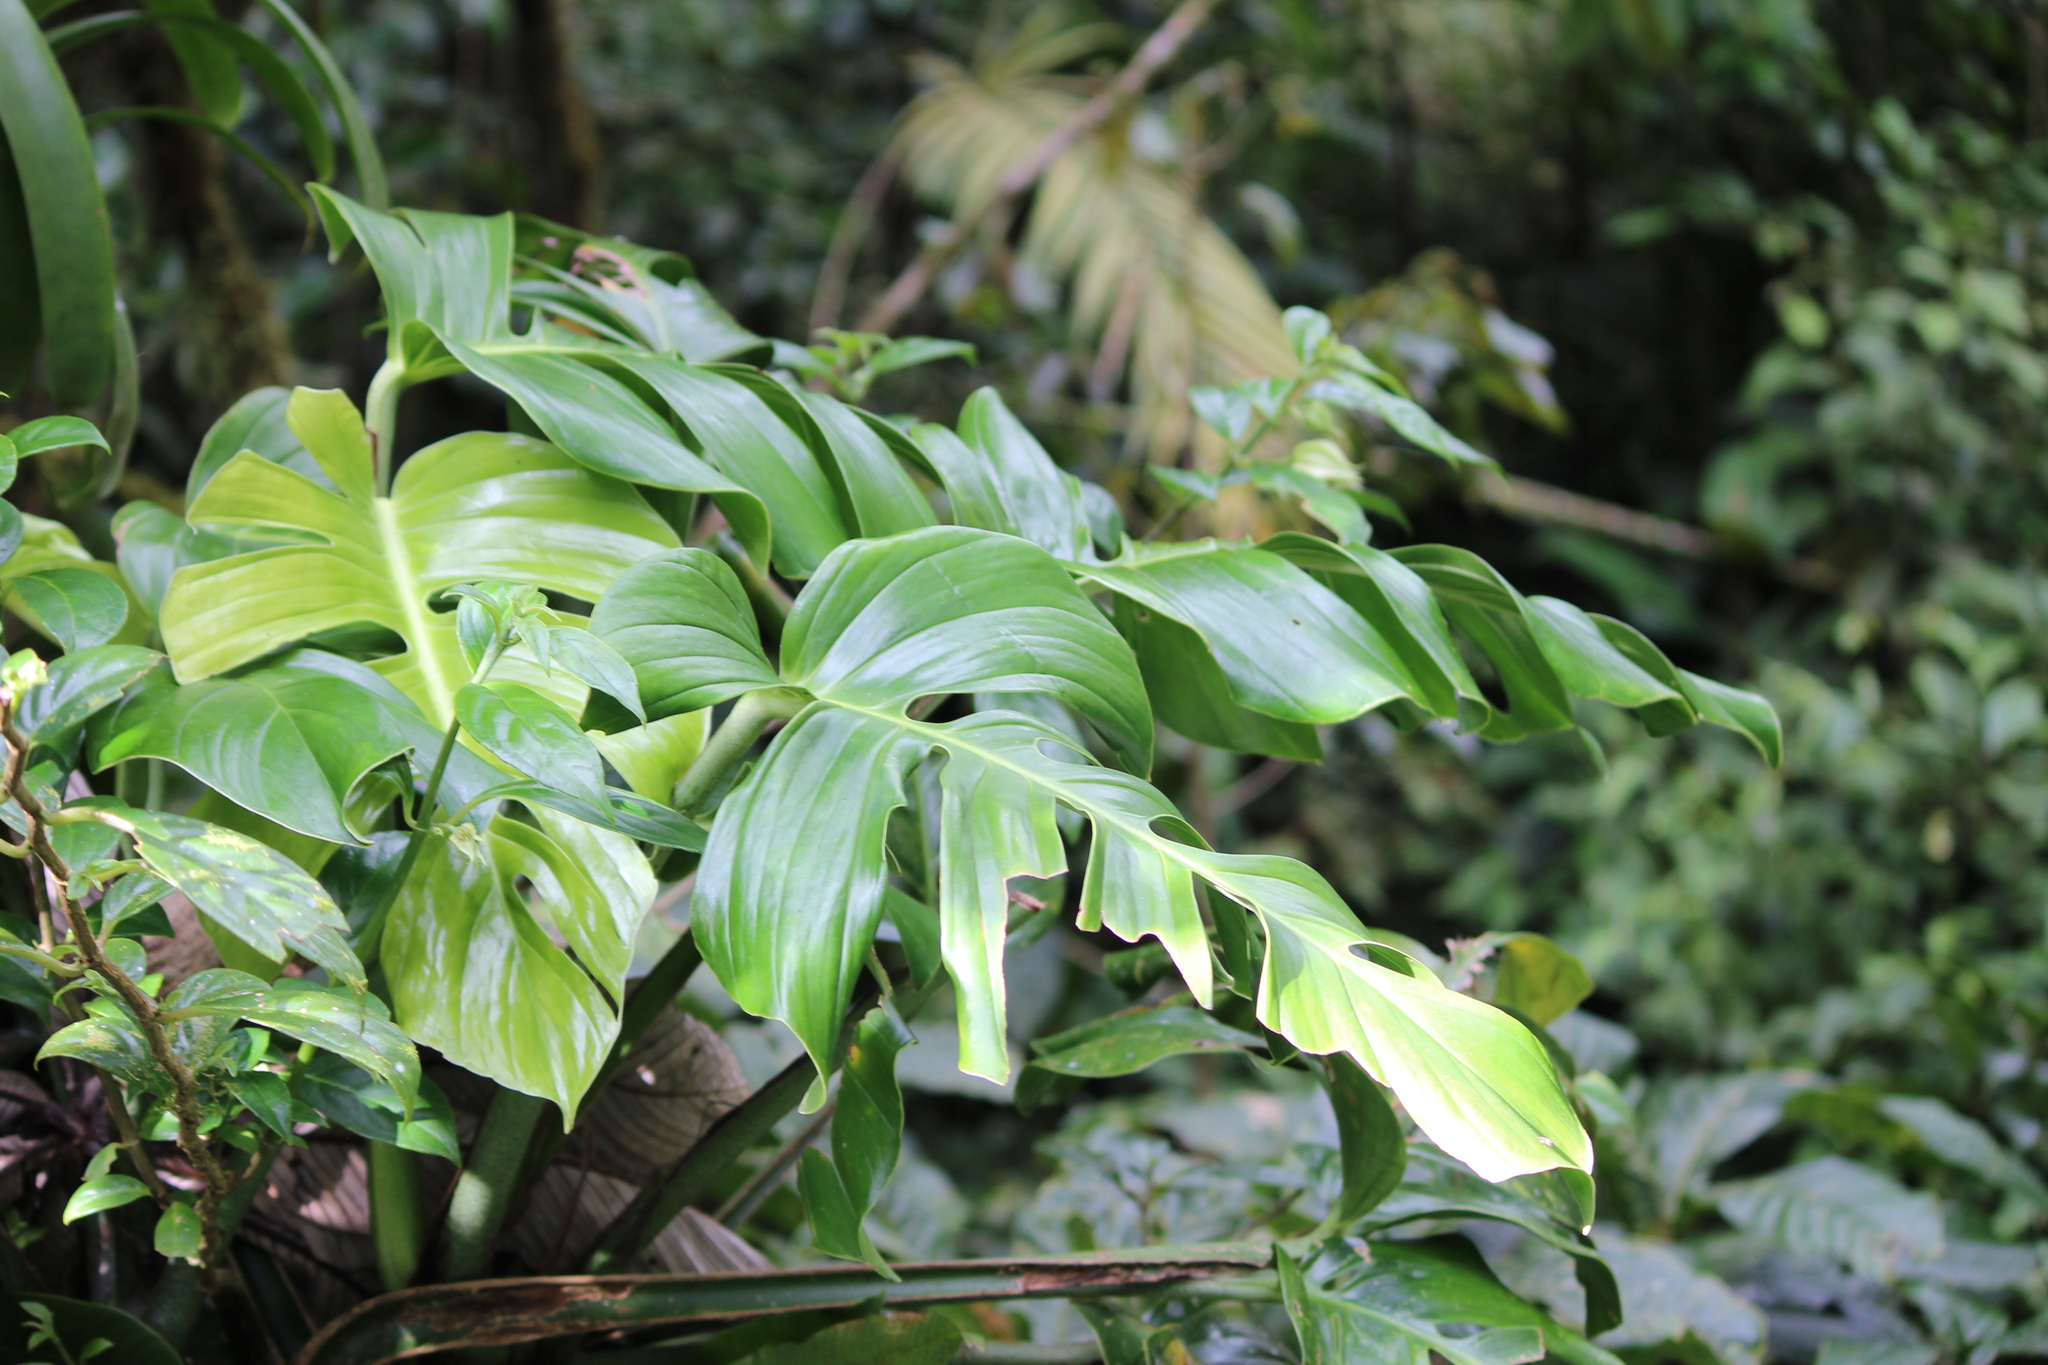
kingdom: Plantae
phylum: Tracheophyta
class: Liliopsida
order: Alismatales
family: Araceae
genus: Monstera
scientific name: Monstera monteverdensis
